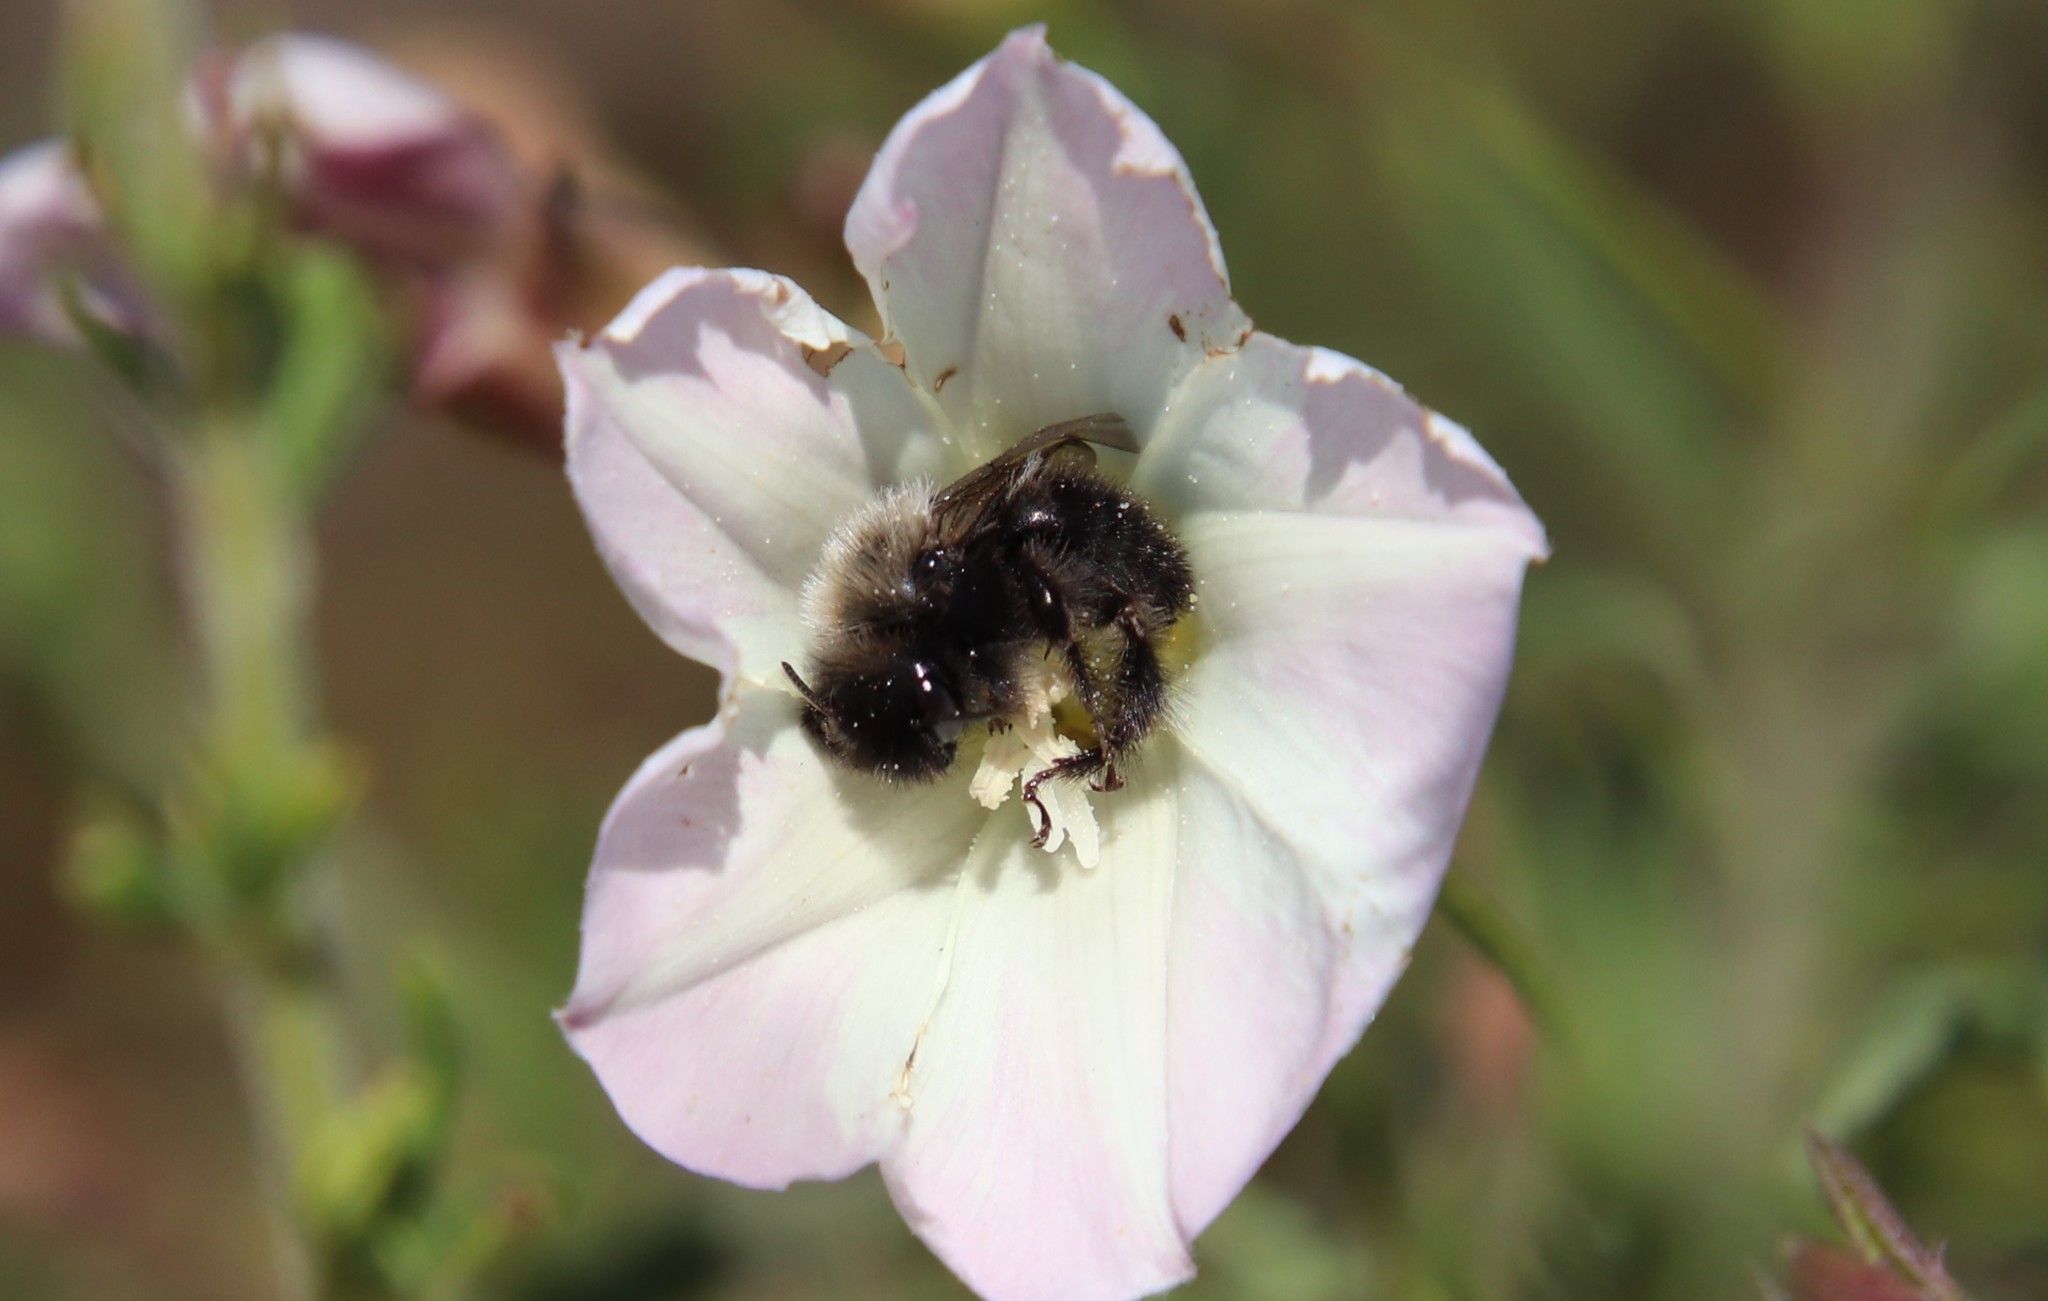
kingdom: Animalia
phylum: Arthropoda
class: Insecta
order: Hymenoptera
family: Apidae
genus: Diadasia
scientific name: Diadasia nigrifrons
